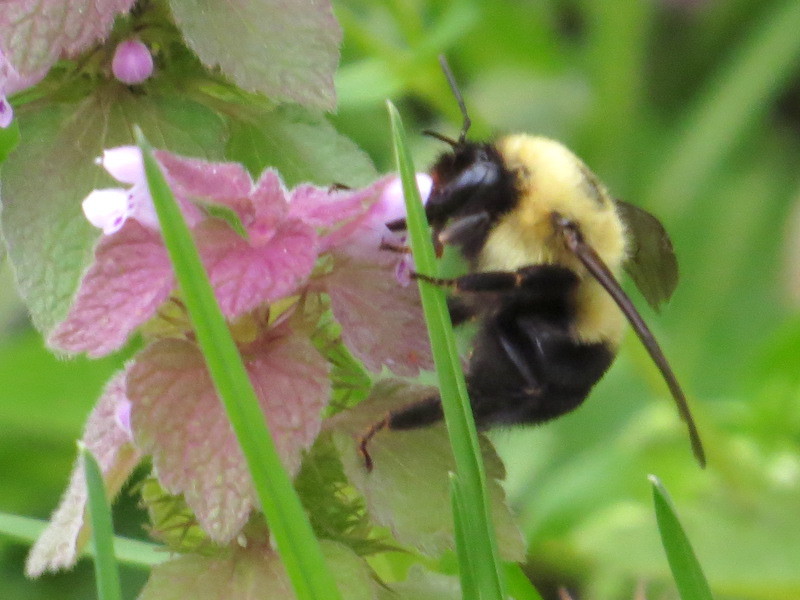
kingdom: Animalia
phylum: Arthropoda
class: Insecta
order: Hymenoptera
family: Apidae
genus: Bombus
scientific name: Bombus bimaculatus
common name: Two-spotted bumble bee
